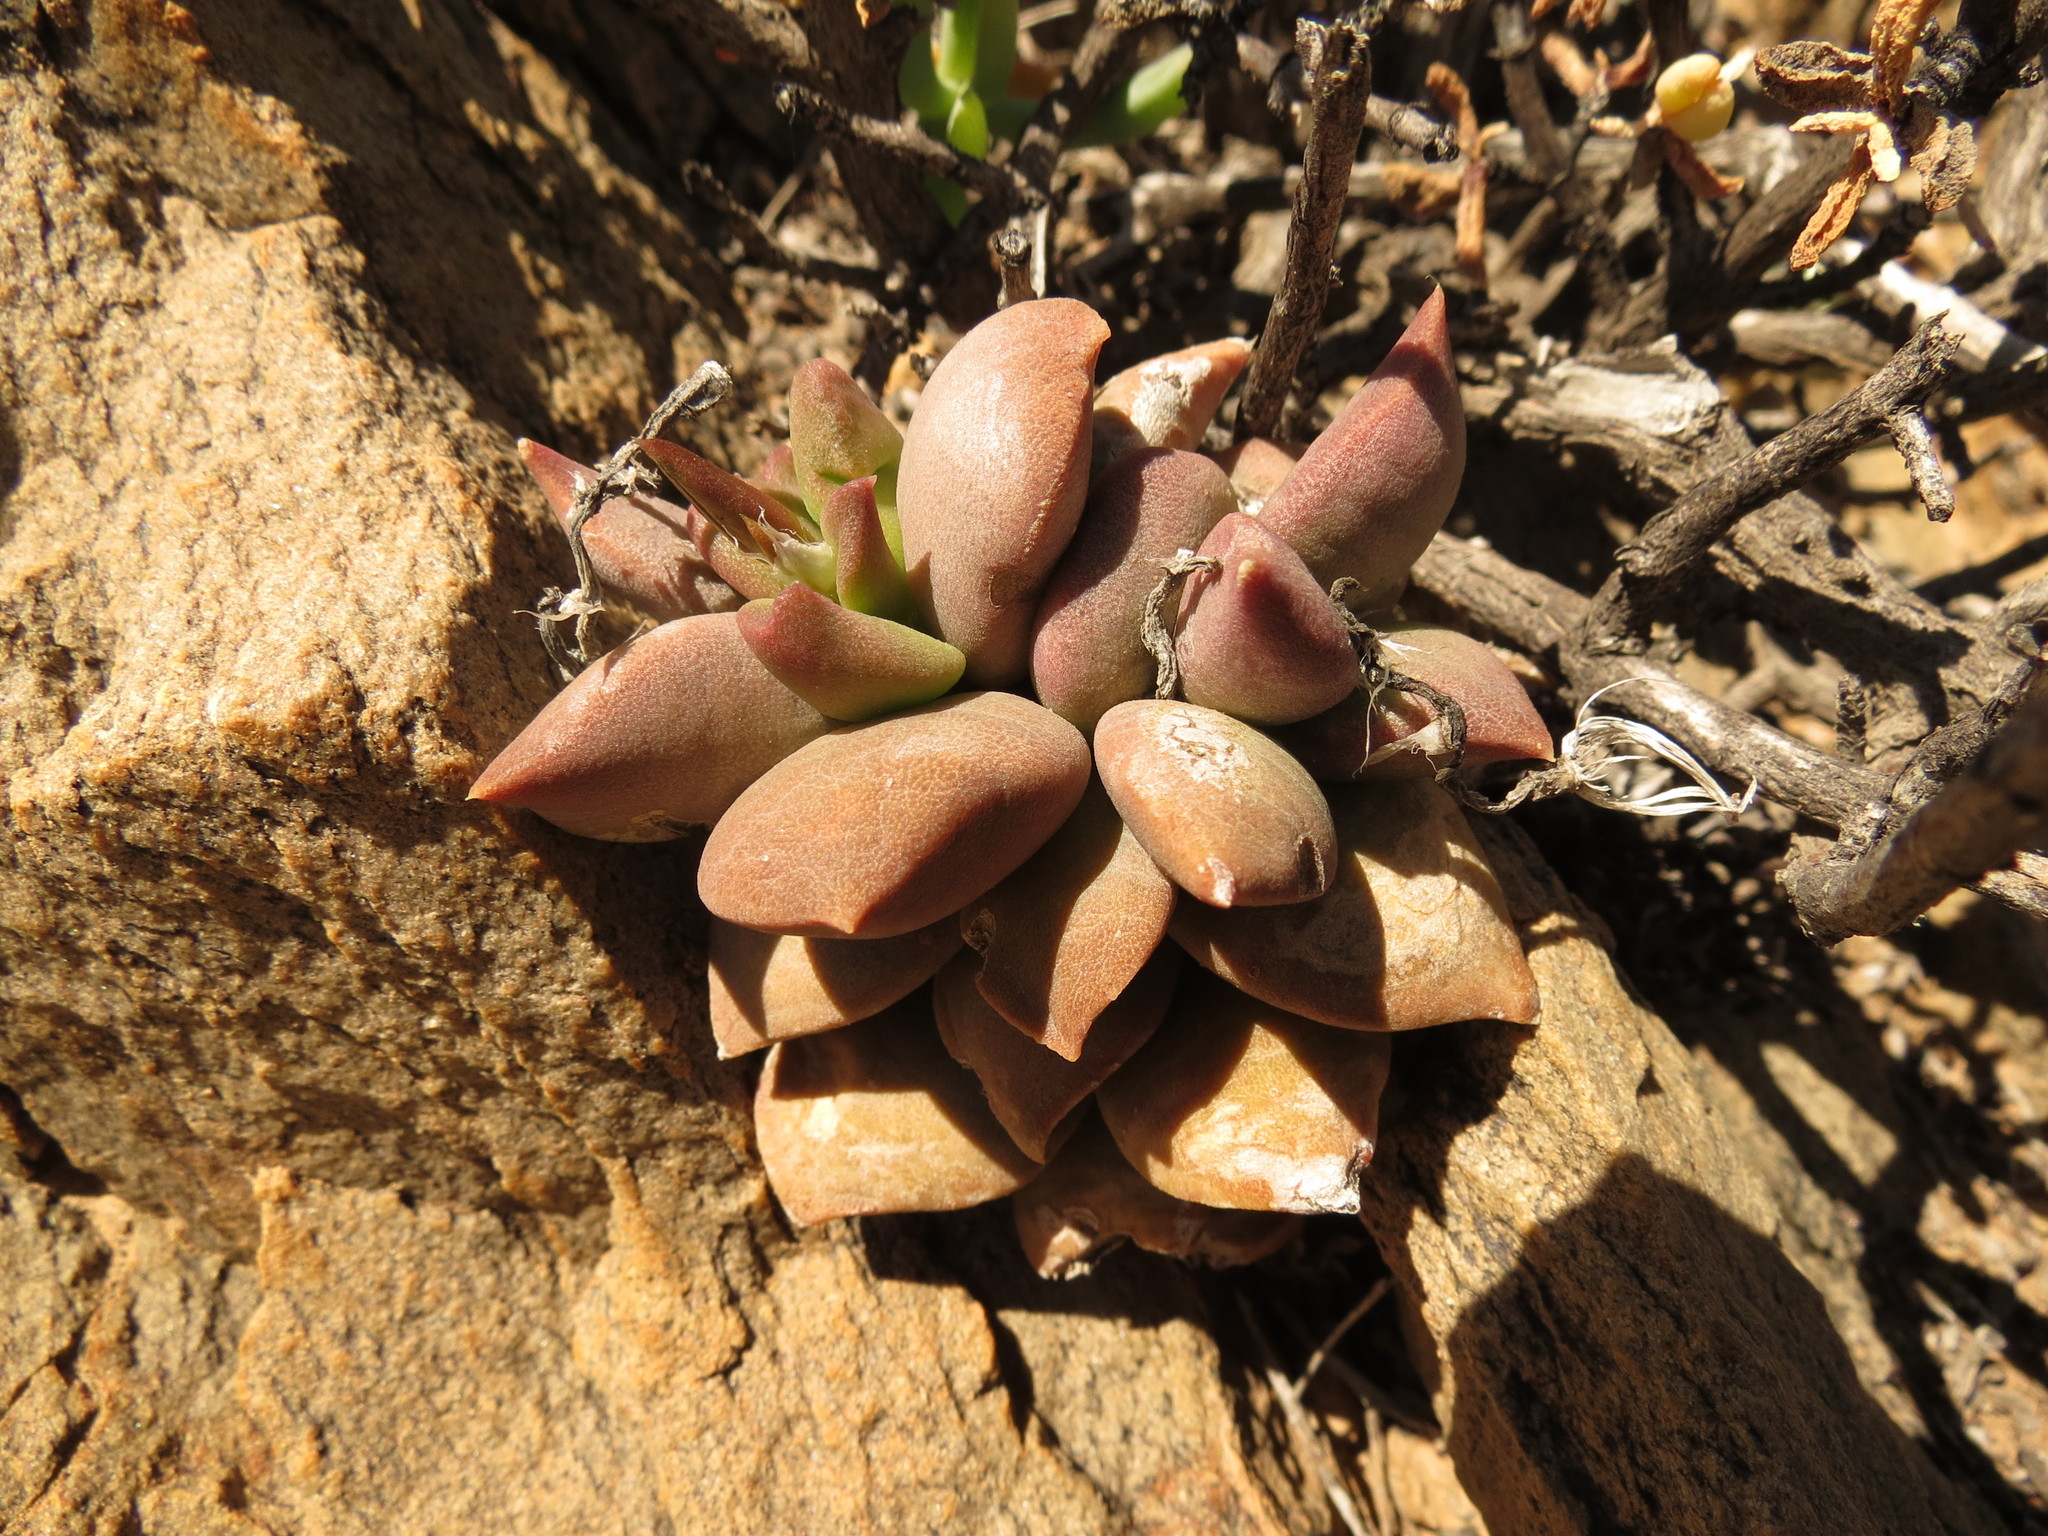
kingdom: Plantae
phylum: Tracheophyta
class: Magnoliopsida
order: Caryophyllales
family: Anacampserotaceae
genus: Anacampseros
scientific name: Anacampseros telephiastrum
